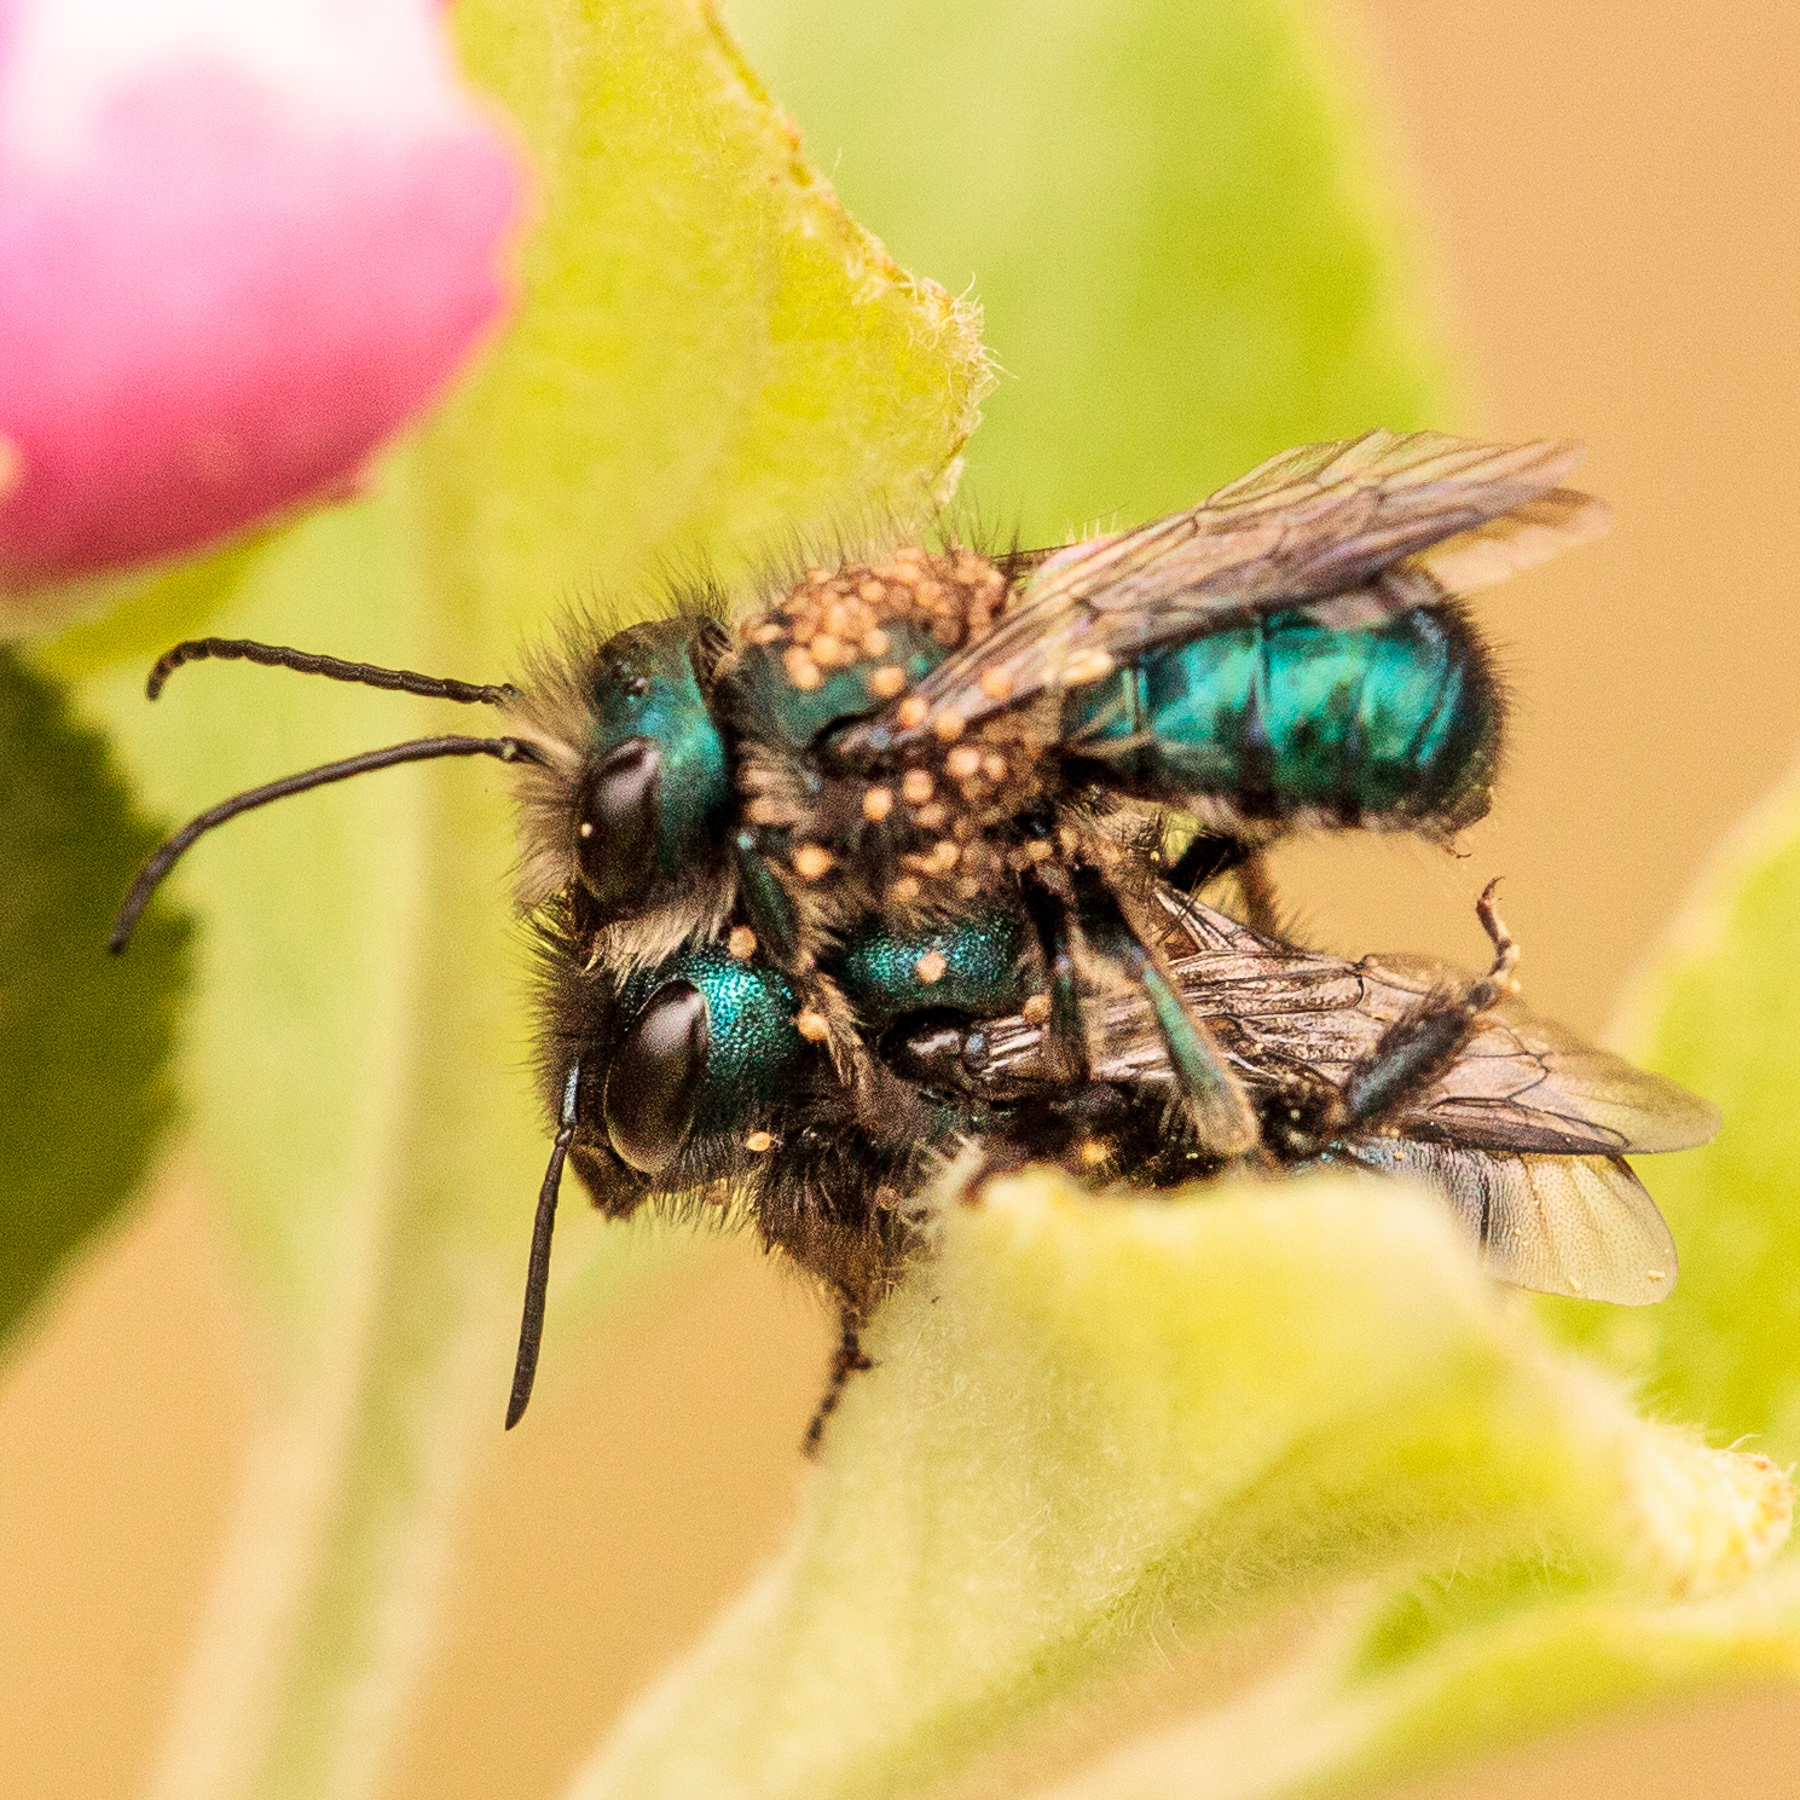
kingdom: Animalia
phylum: Arthropoda
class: Insecta
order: Hymenoptera
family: Megachilidae
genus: Osmia
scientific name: Osmia ribifloris
